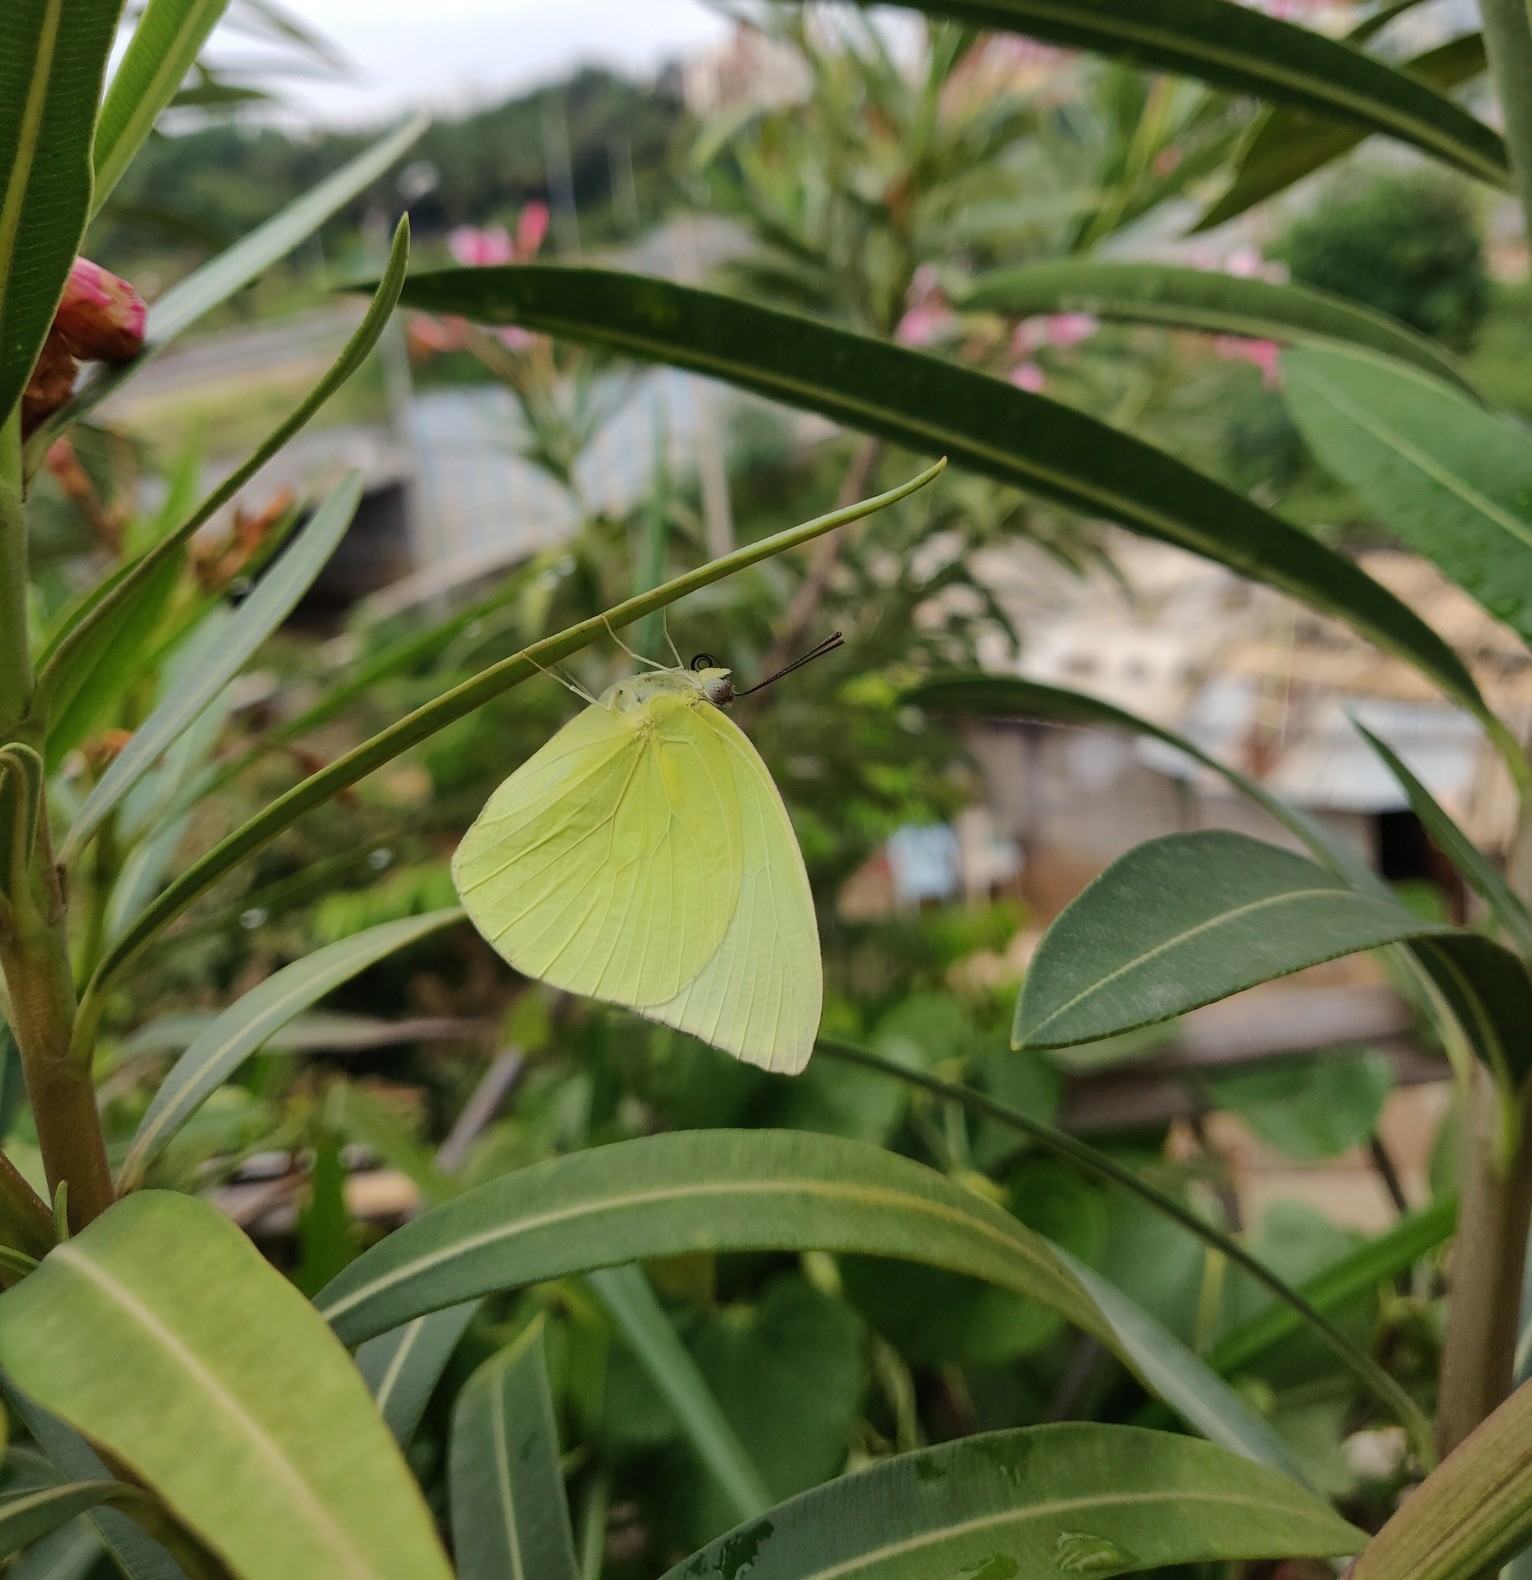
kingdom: Animalia
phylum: Arthropoda
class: Insecta
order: Lepidoptera
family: Pieridae
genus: Catopsilia
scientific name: Catopsilia pomona
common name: Common emigrant
